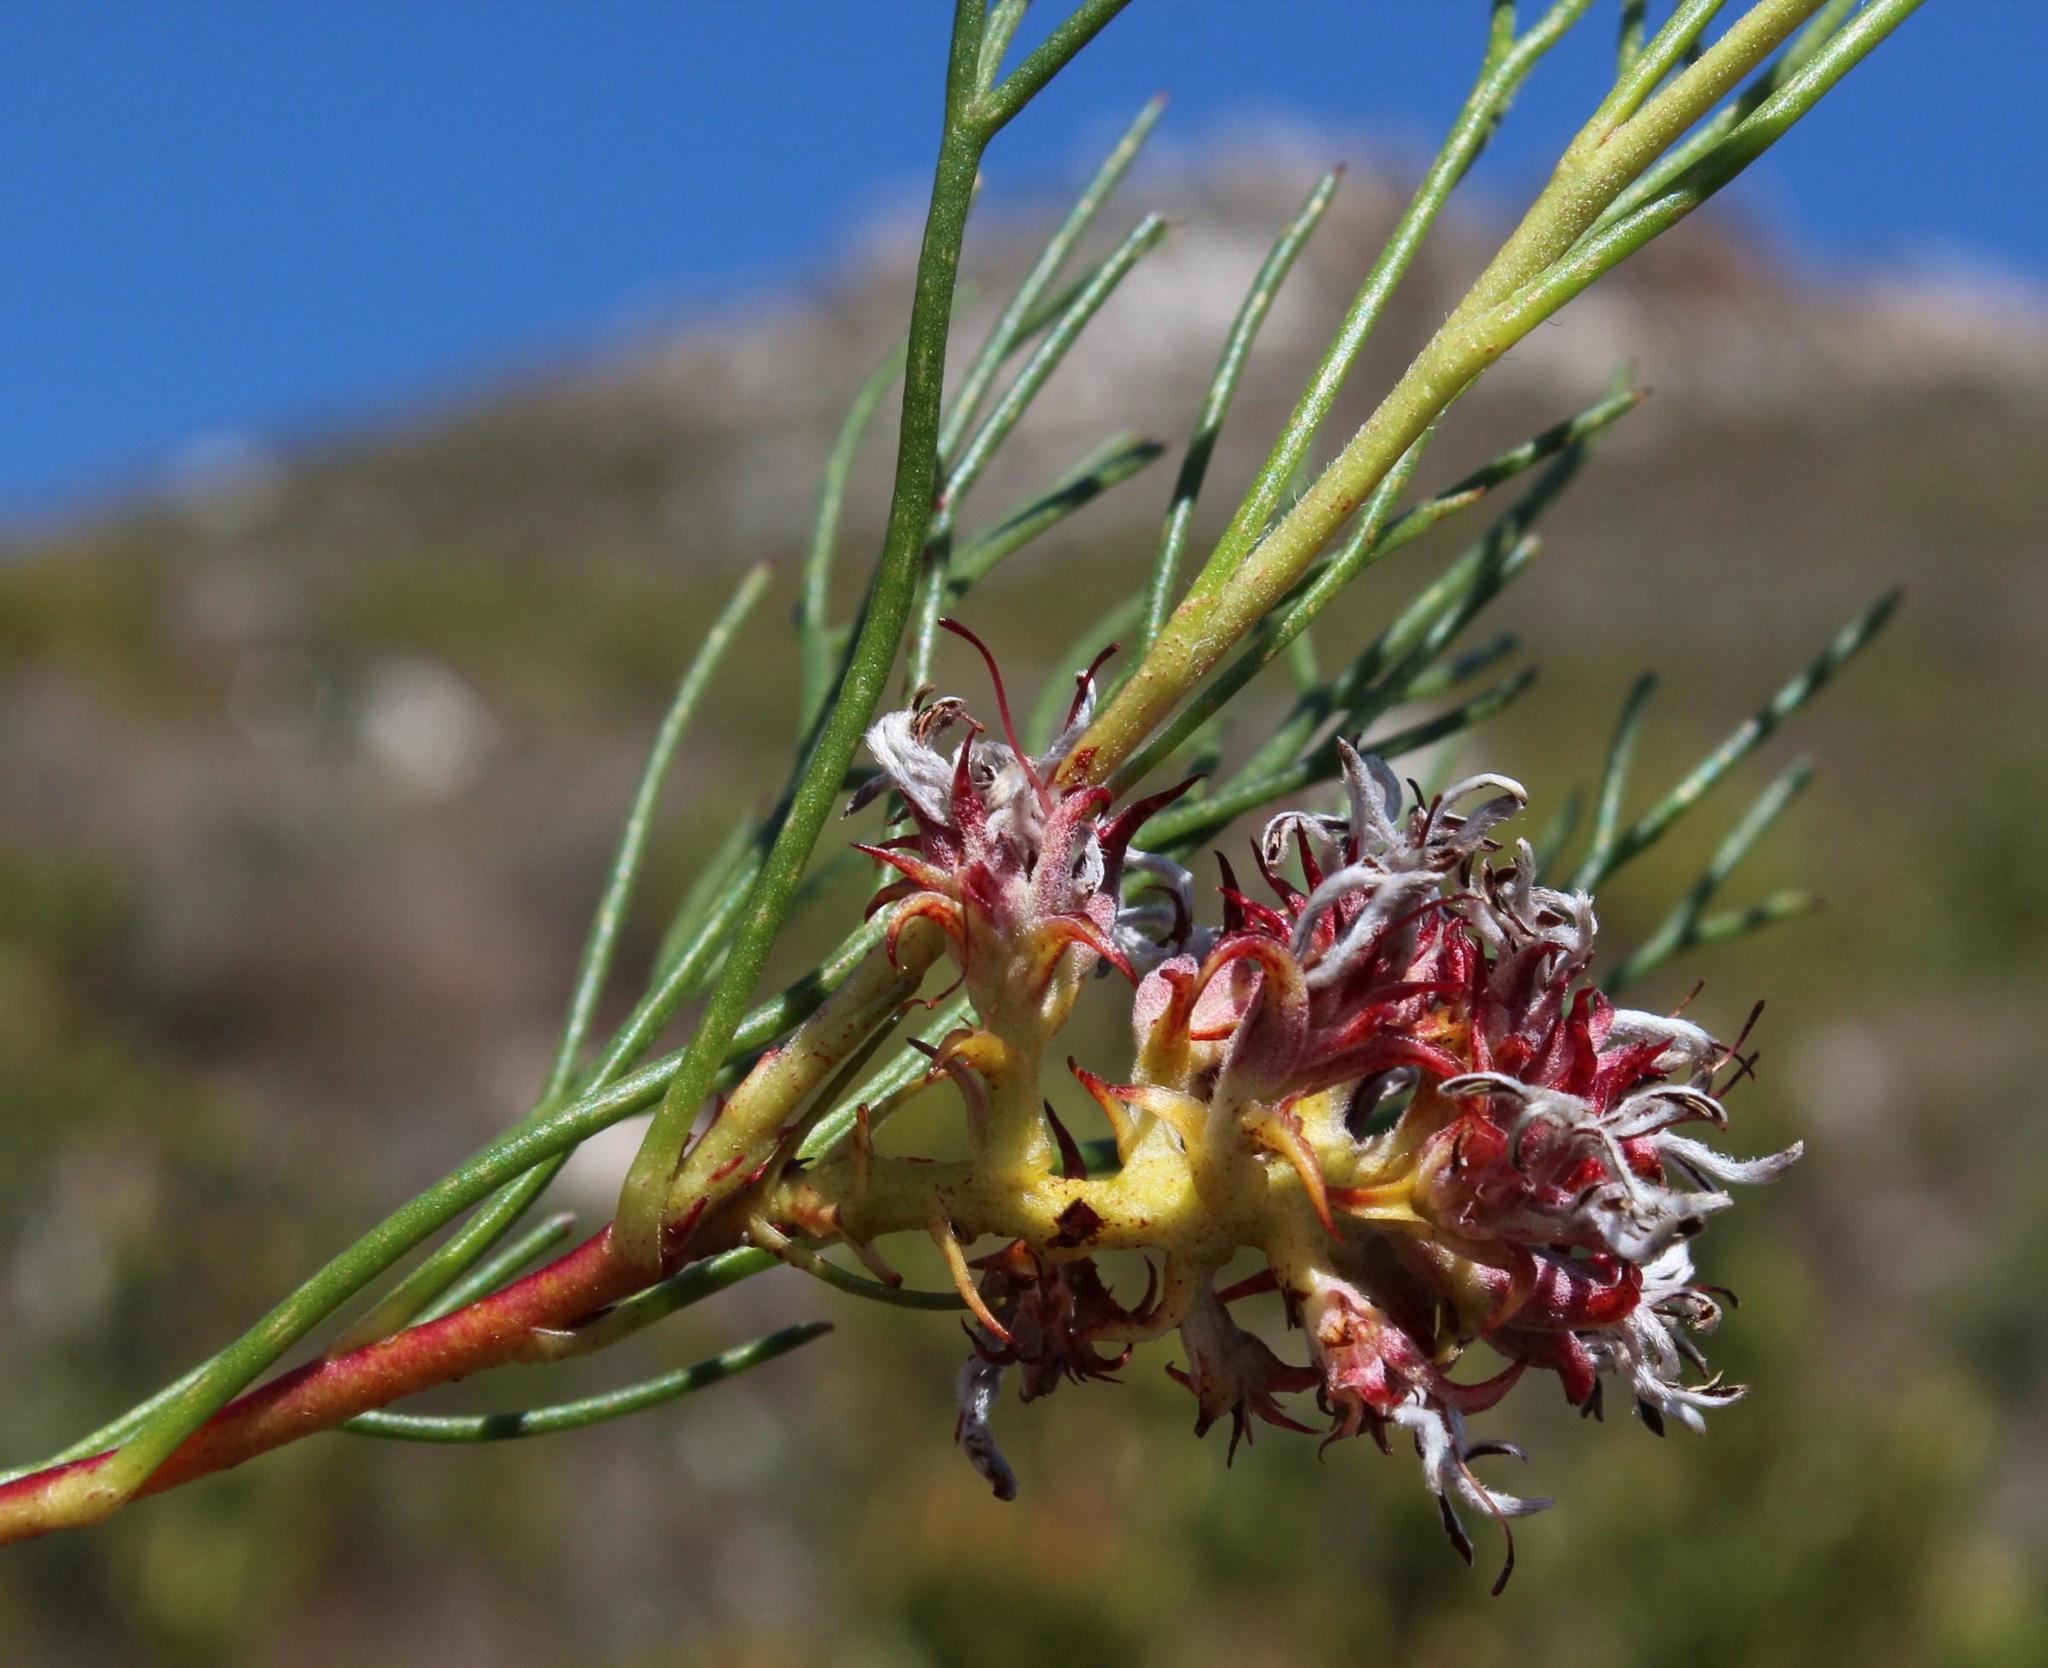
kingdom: Plantae
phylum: Tracheophyta
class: Magnoliopsida
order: Proteales
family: Proteaceae
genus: Serruria
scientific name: Serruria rubricaulis
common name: Red-stem spiderhead
